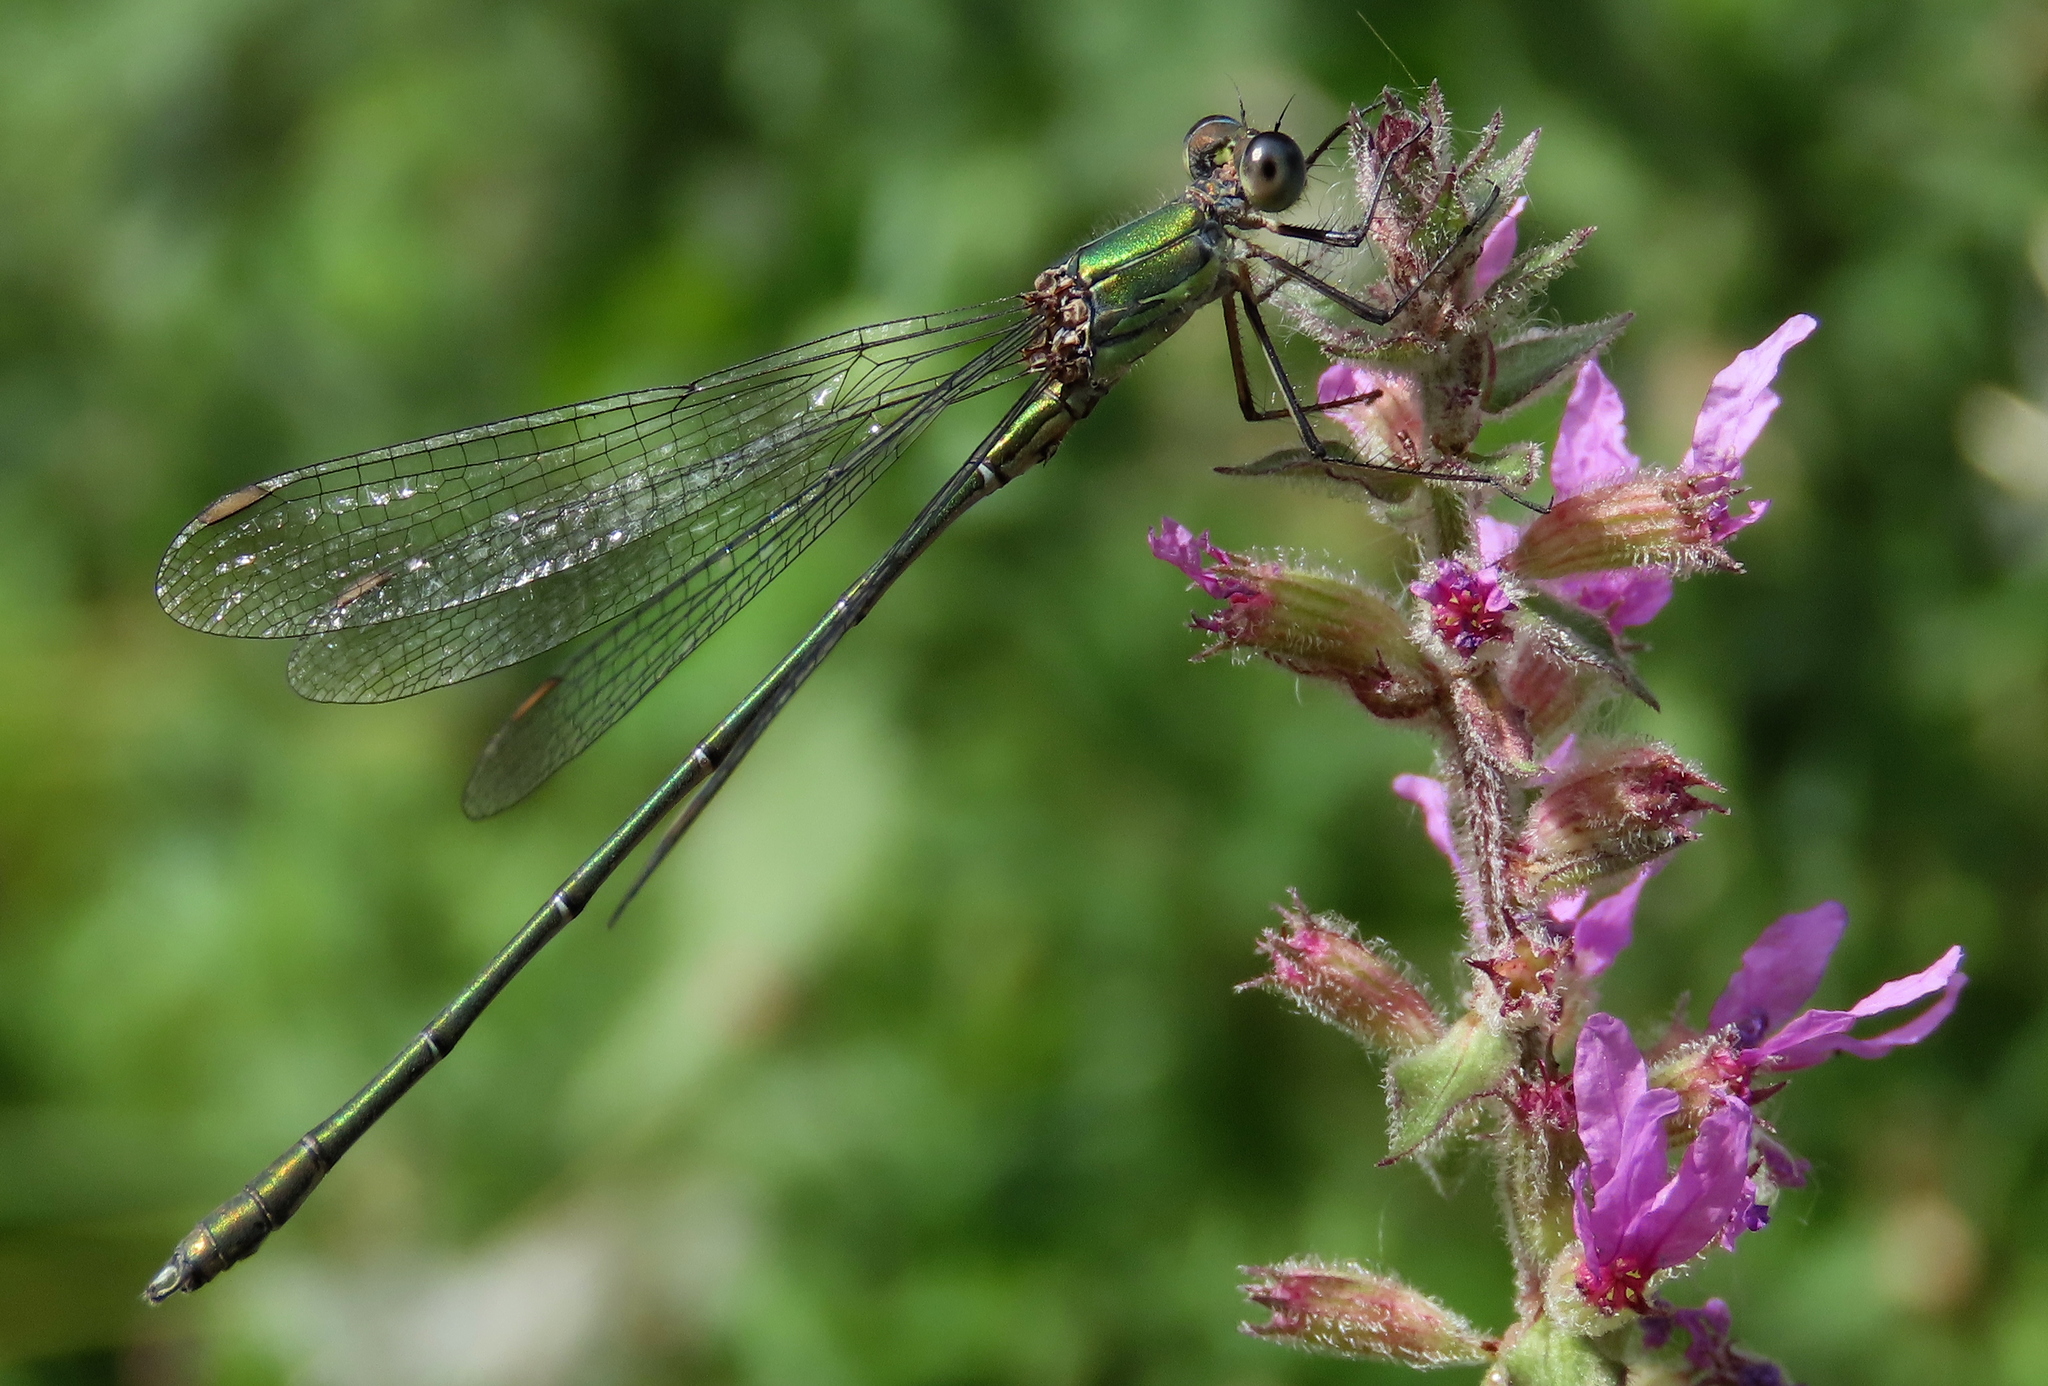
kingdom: Animalia
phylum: Arthropoda
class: Insecta
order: Odonata
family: Lestidae
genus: Chalcolestes
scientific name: Chalcolestes viridis
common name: Green emerald damselfly
